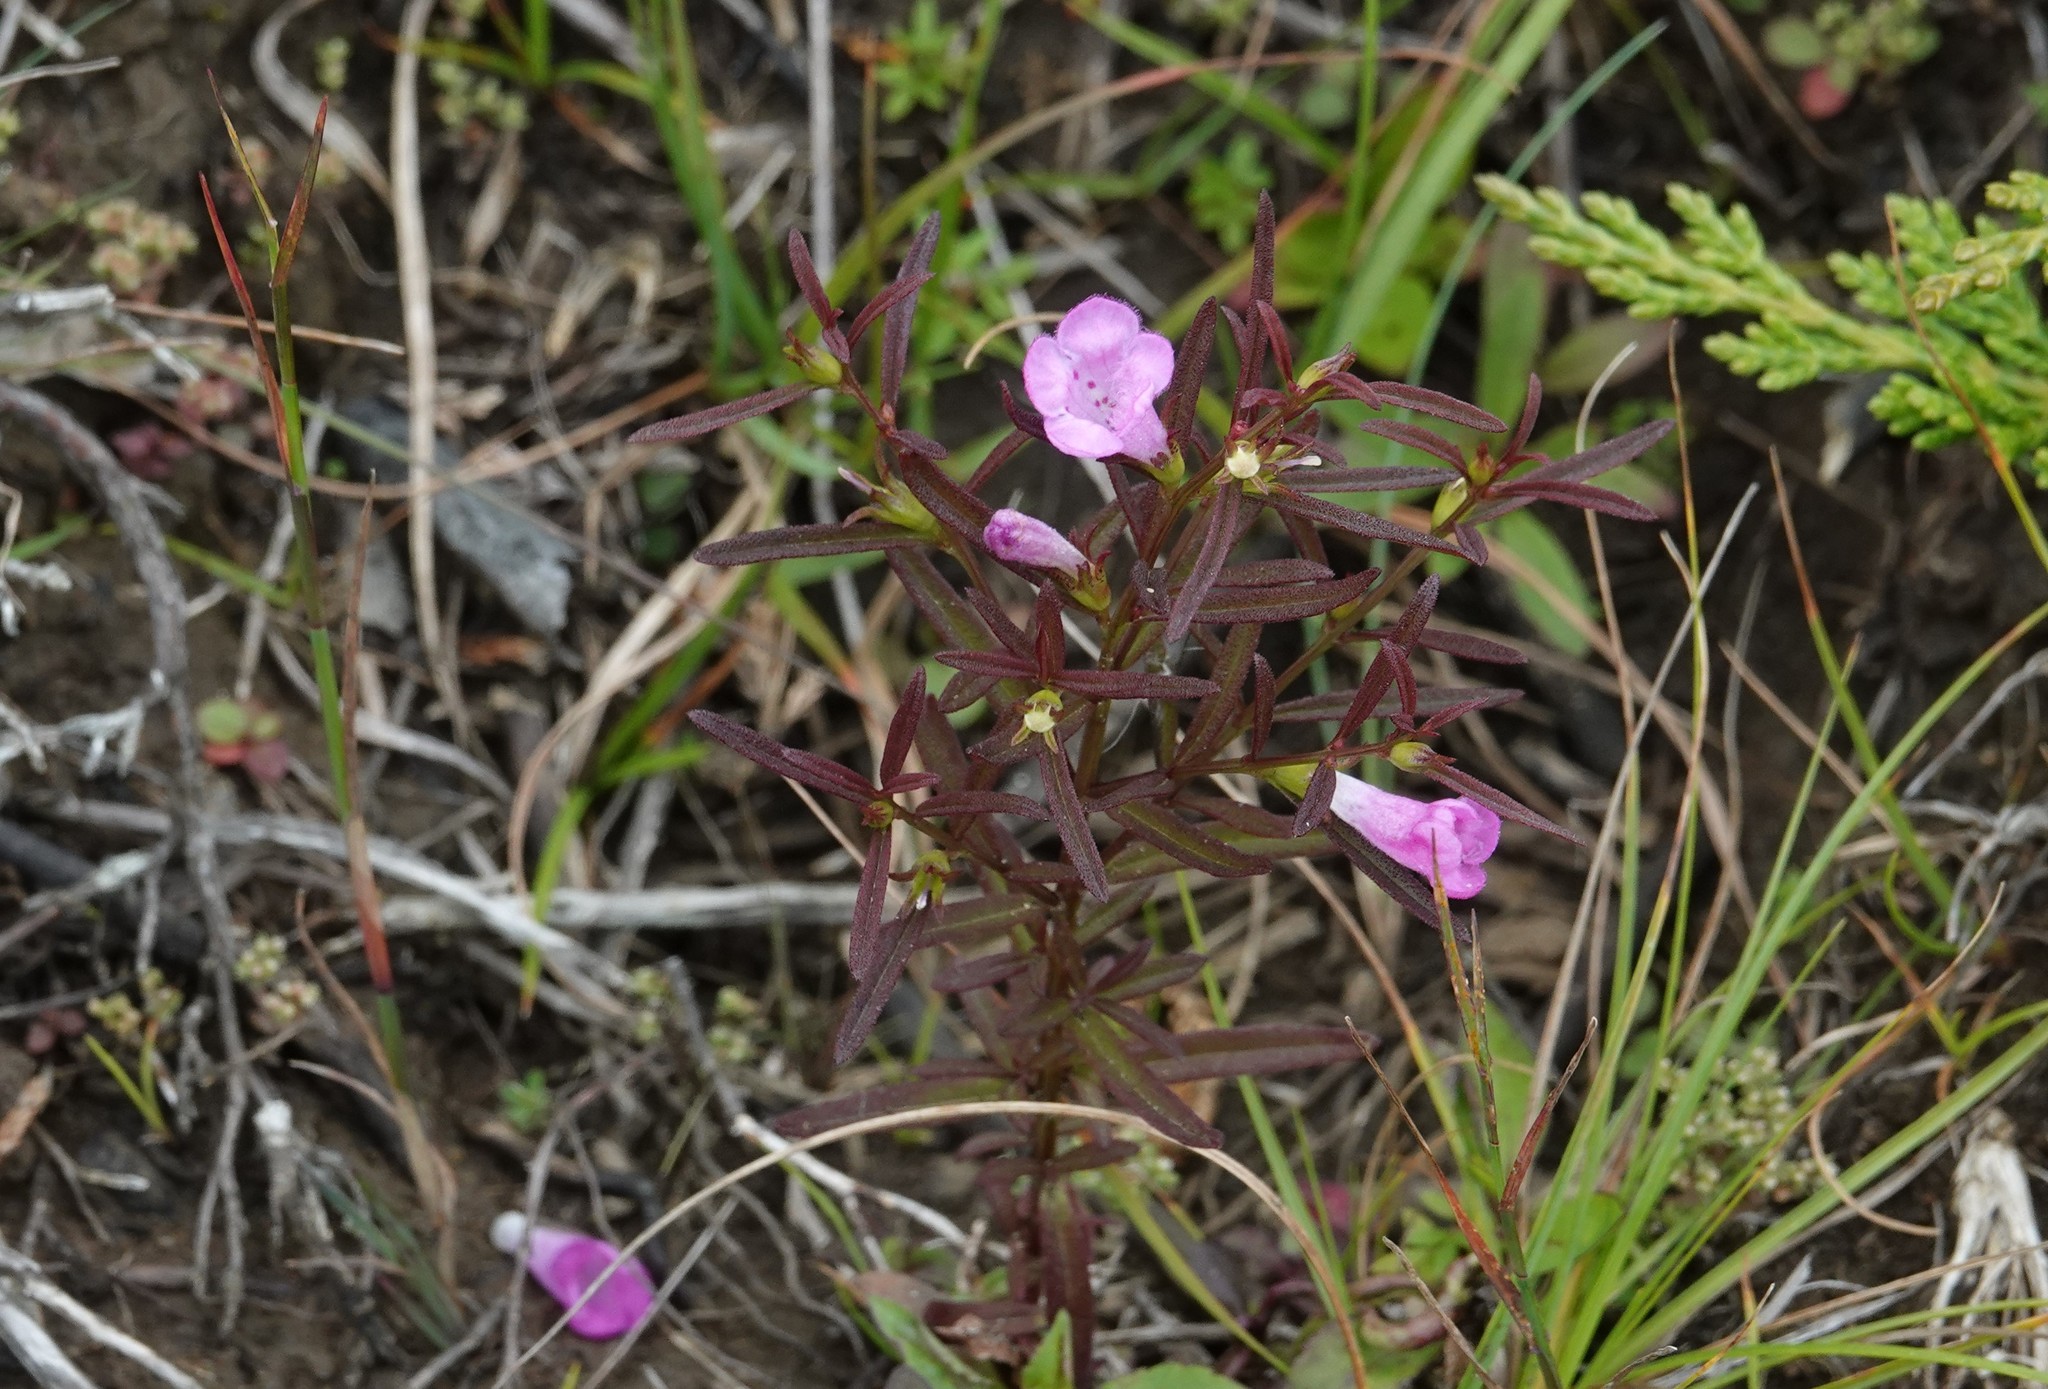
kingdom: Plantae
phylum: Tracheophyta
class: Magnoliopsida
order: Lamiales
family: Orobanchaceae
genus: Agalinis
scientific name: Agalinis neoscotica
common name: Middleton false foxglove
